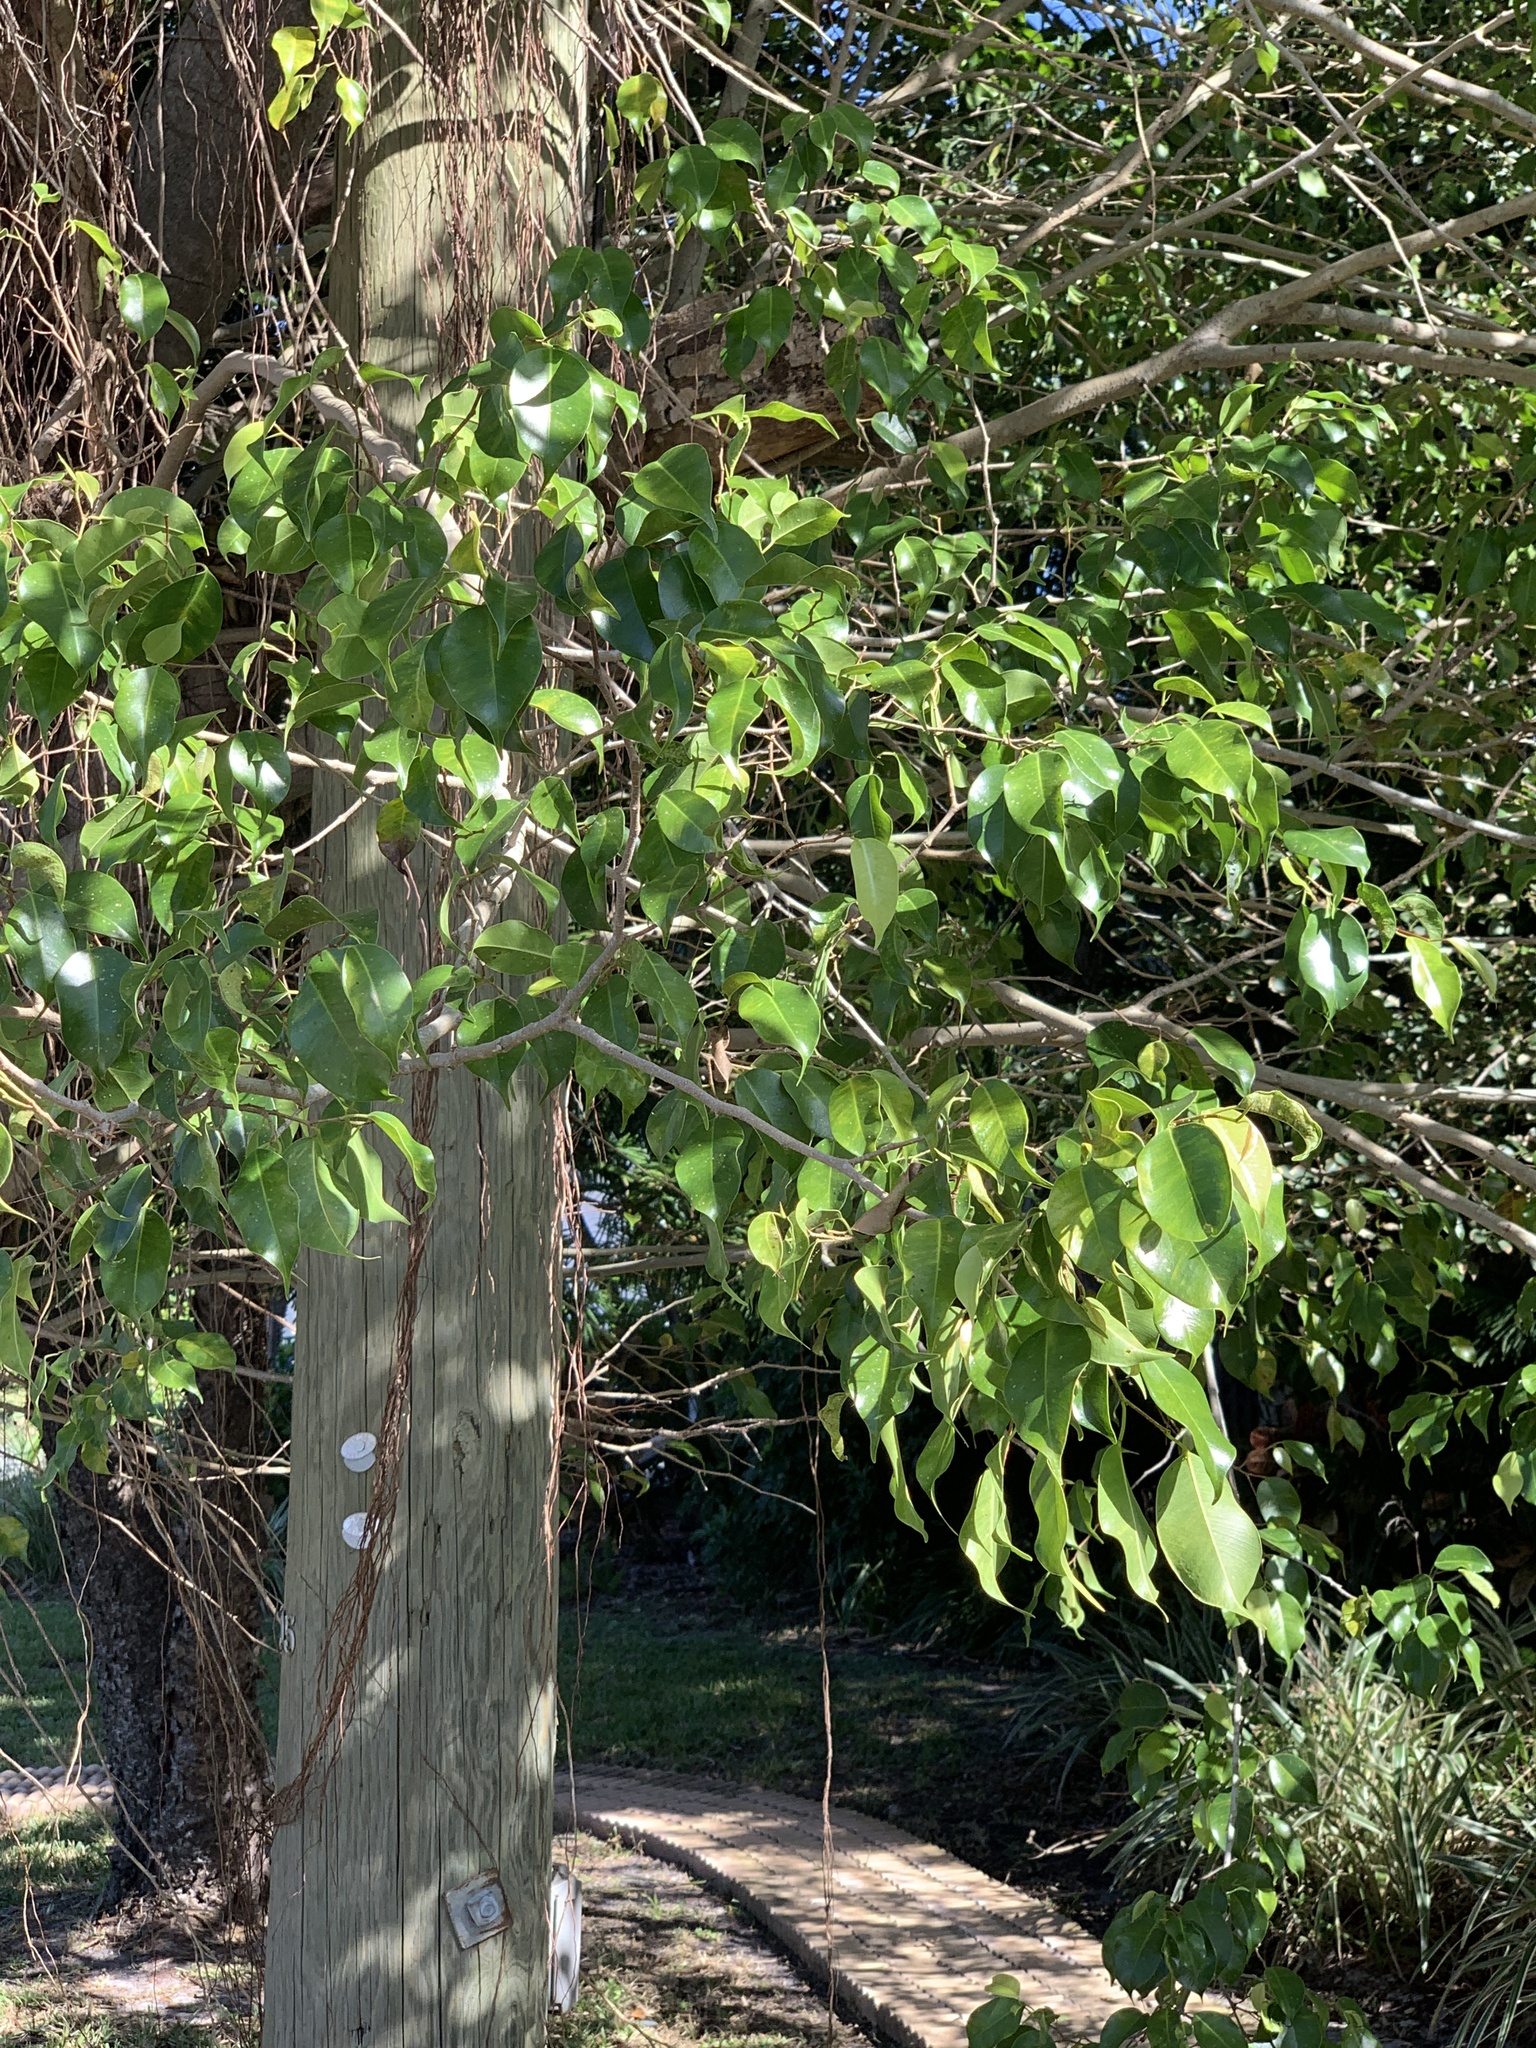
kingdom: Plantae
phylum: Tracheophyta
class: Magnoliopsida
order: Rosales
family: Moraceae
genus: Ficus
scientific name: Ficus benjamina
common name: Weeping fig
